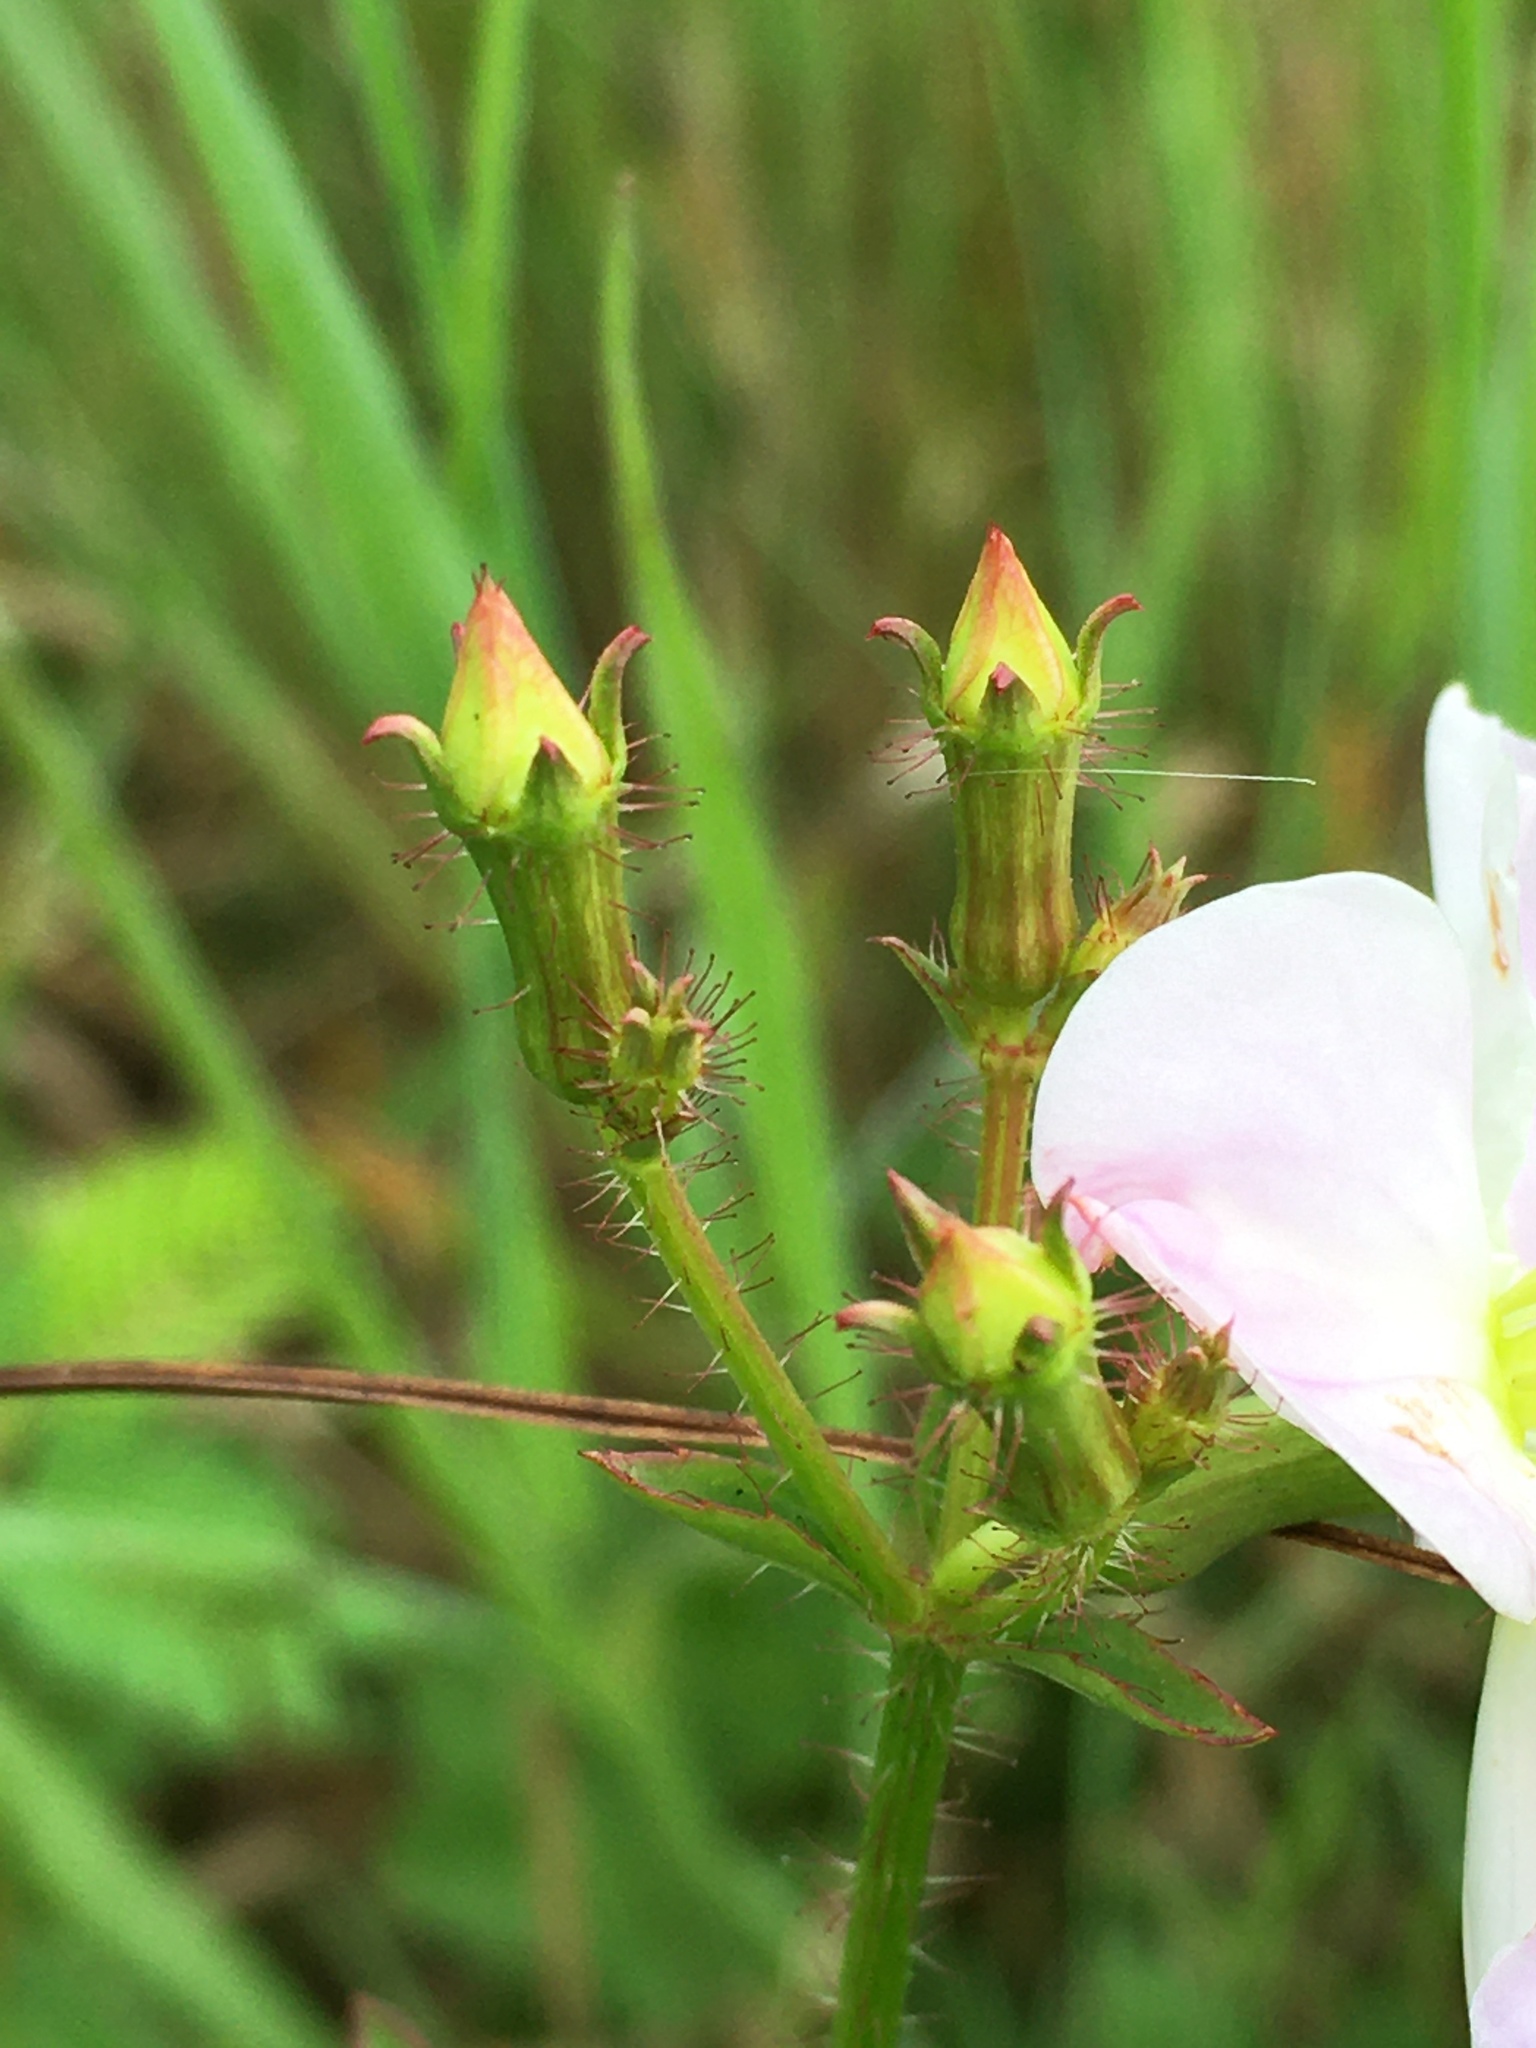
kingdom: Plantae
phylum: Tracheophyta
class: Magnoliopsida
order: Myrtales
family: Melastomataceae
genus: Rhexia
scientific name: Rhexia mariana
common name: Dull meadow-pitcher
